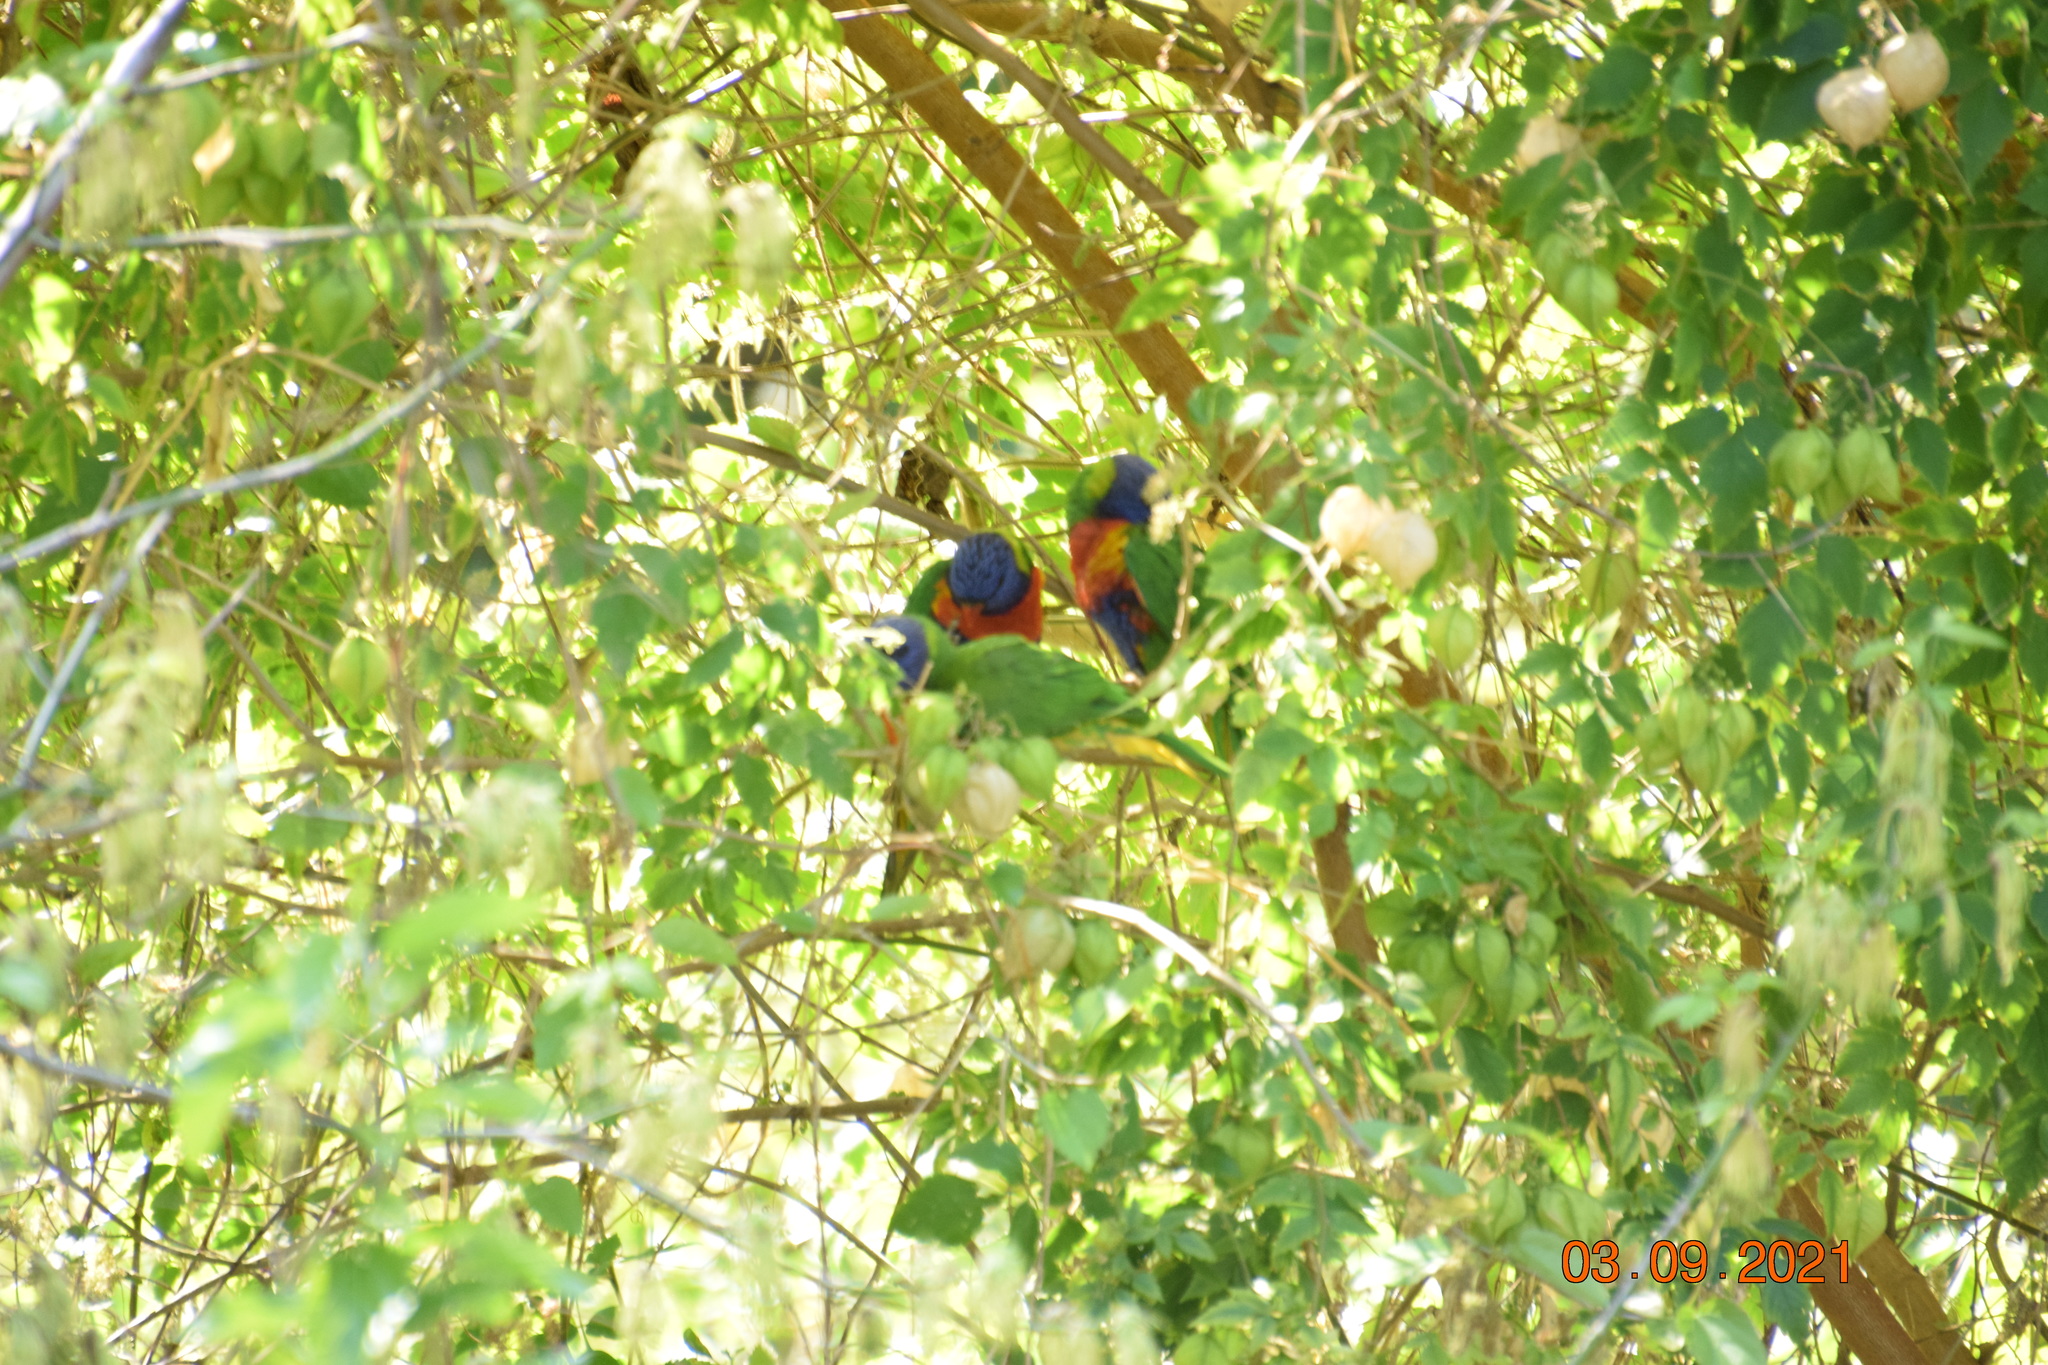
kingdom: Animalia
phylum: Chordata
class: Aves
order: Psittaciformes
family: Psittacidae
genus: Trichoglossus
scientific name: Trichoglossus haematodus
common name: Coconut lorikeet
